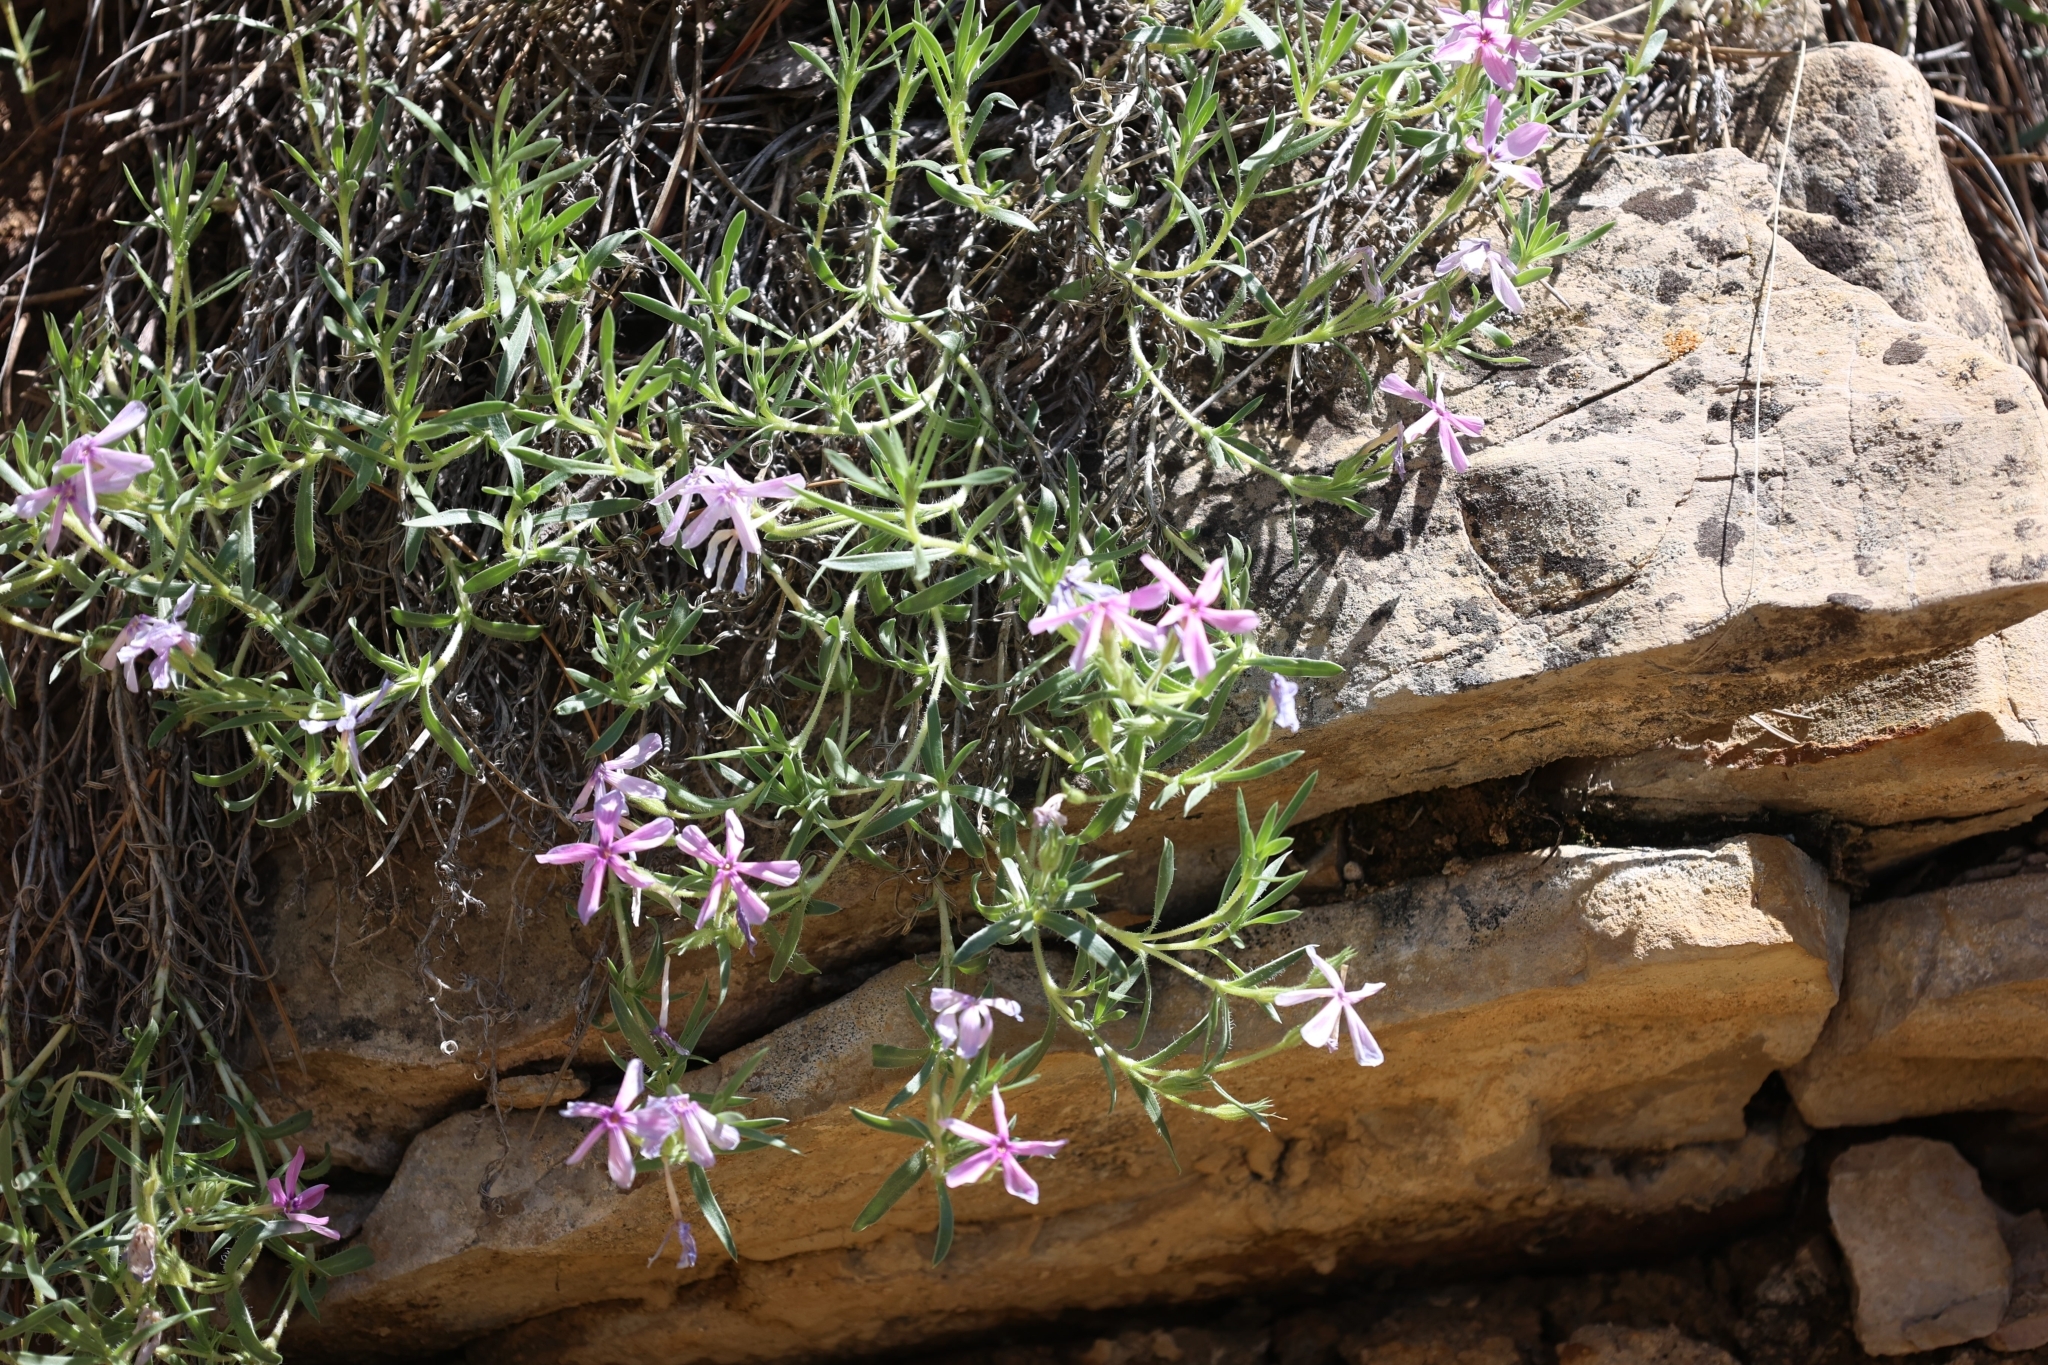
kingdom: Plantae
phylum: Tracheophyta
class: Magnoliopsida
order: Ericales
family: Polemoniaceae
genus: Phlox
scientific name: Phlox alyssifolia
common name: Blue phlox
